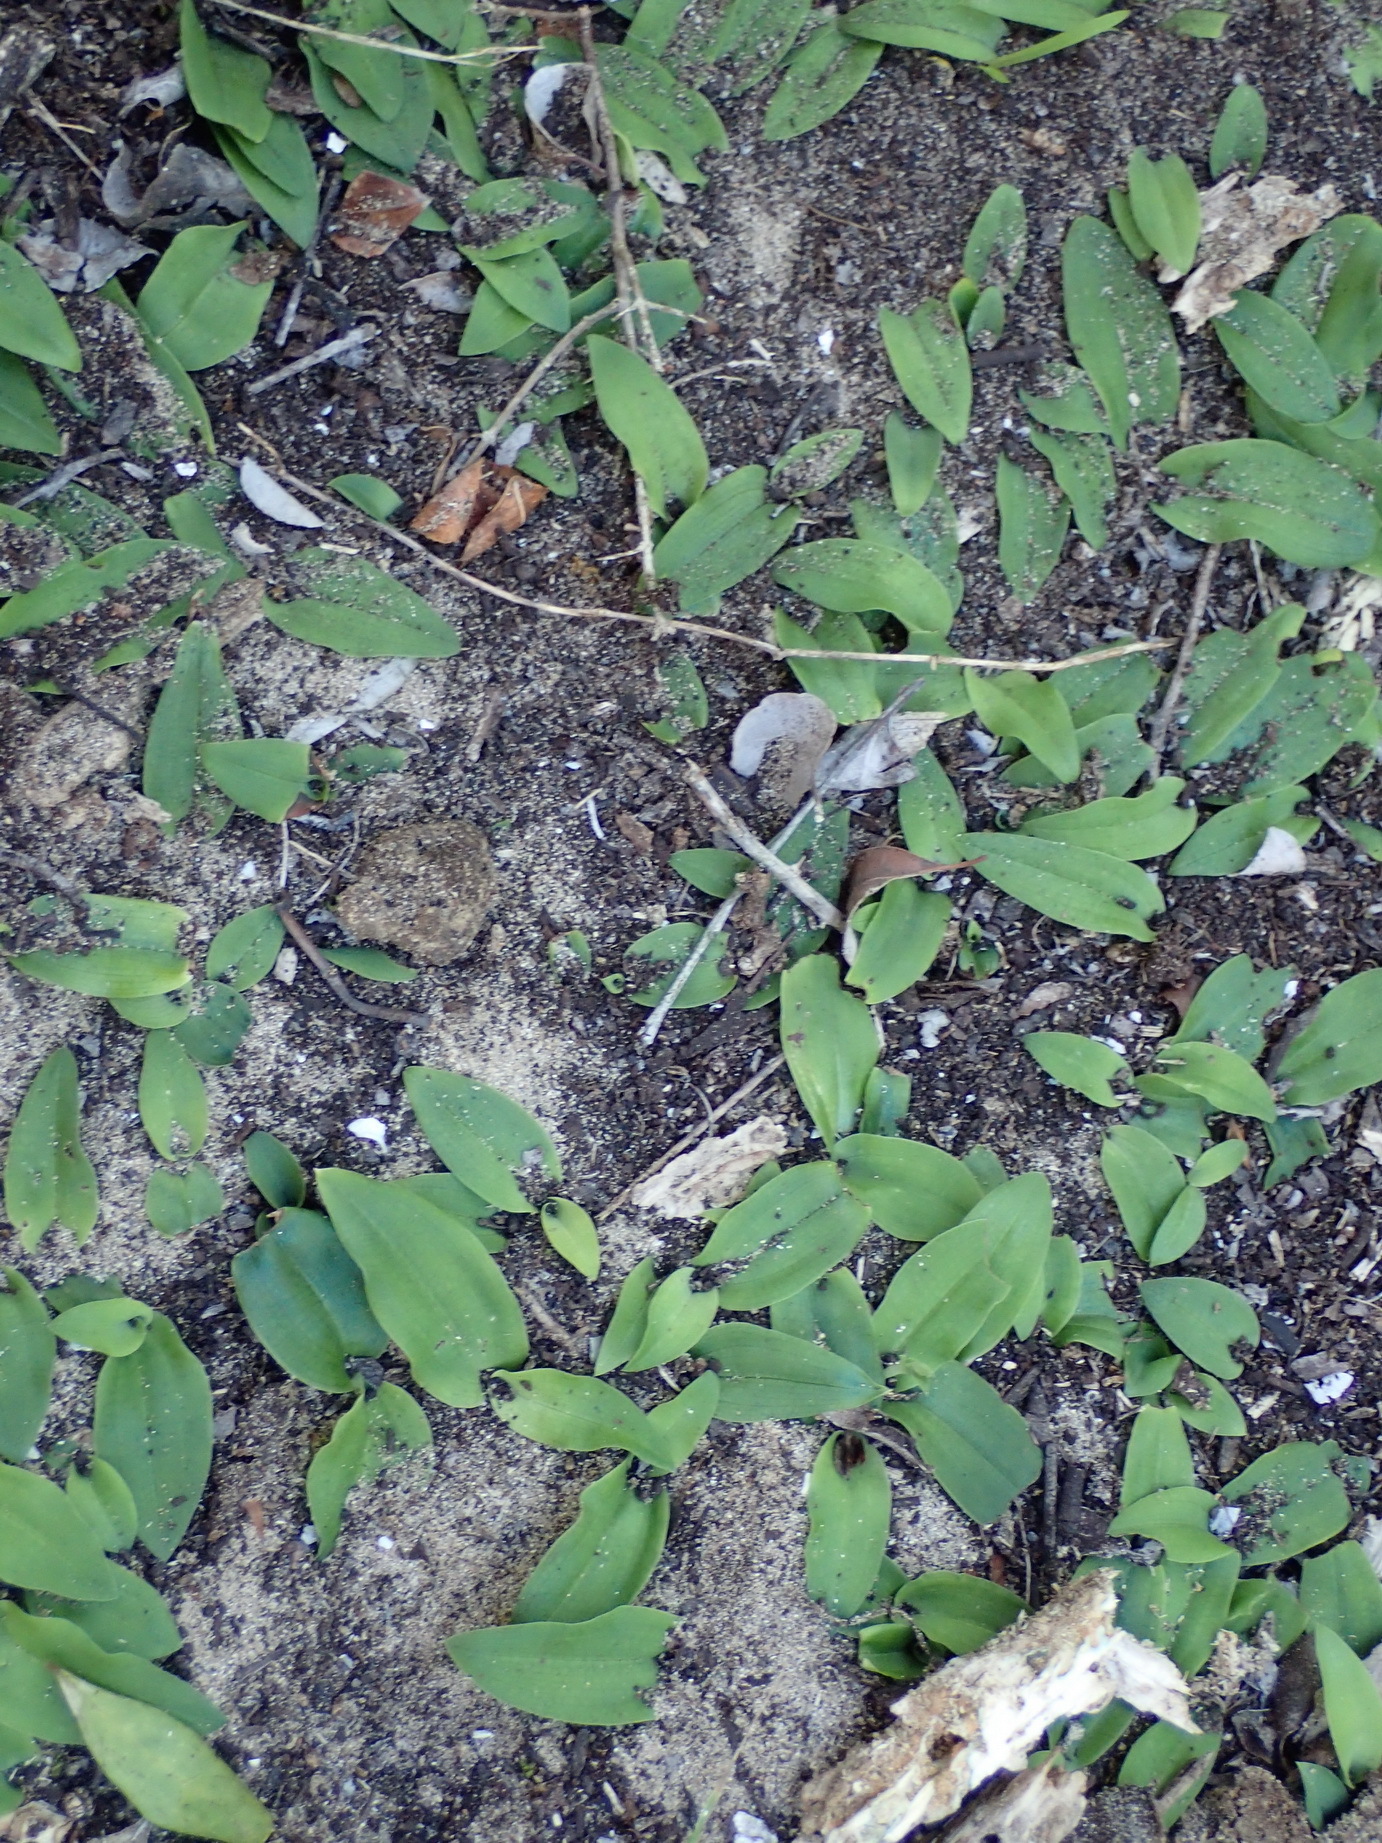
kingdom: Plantae
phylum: Tracheophyta
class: Liliopsida
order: Asparagales
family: Orchidaceae
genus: Habenaria
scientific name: Habenaria arenaria
